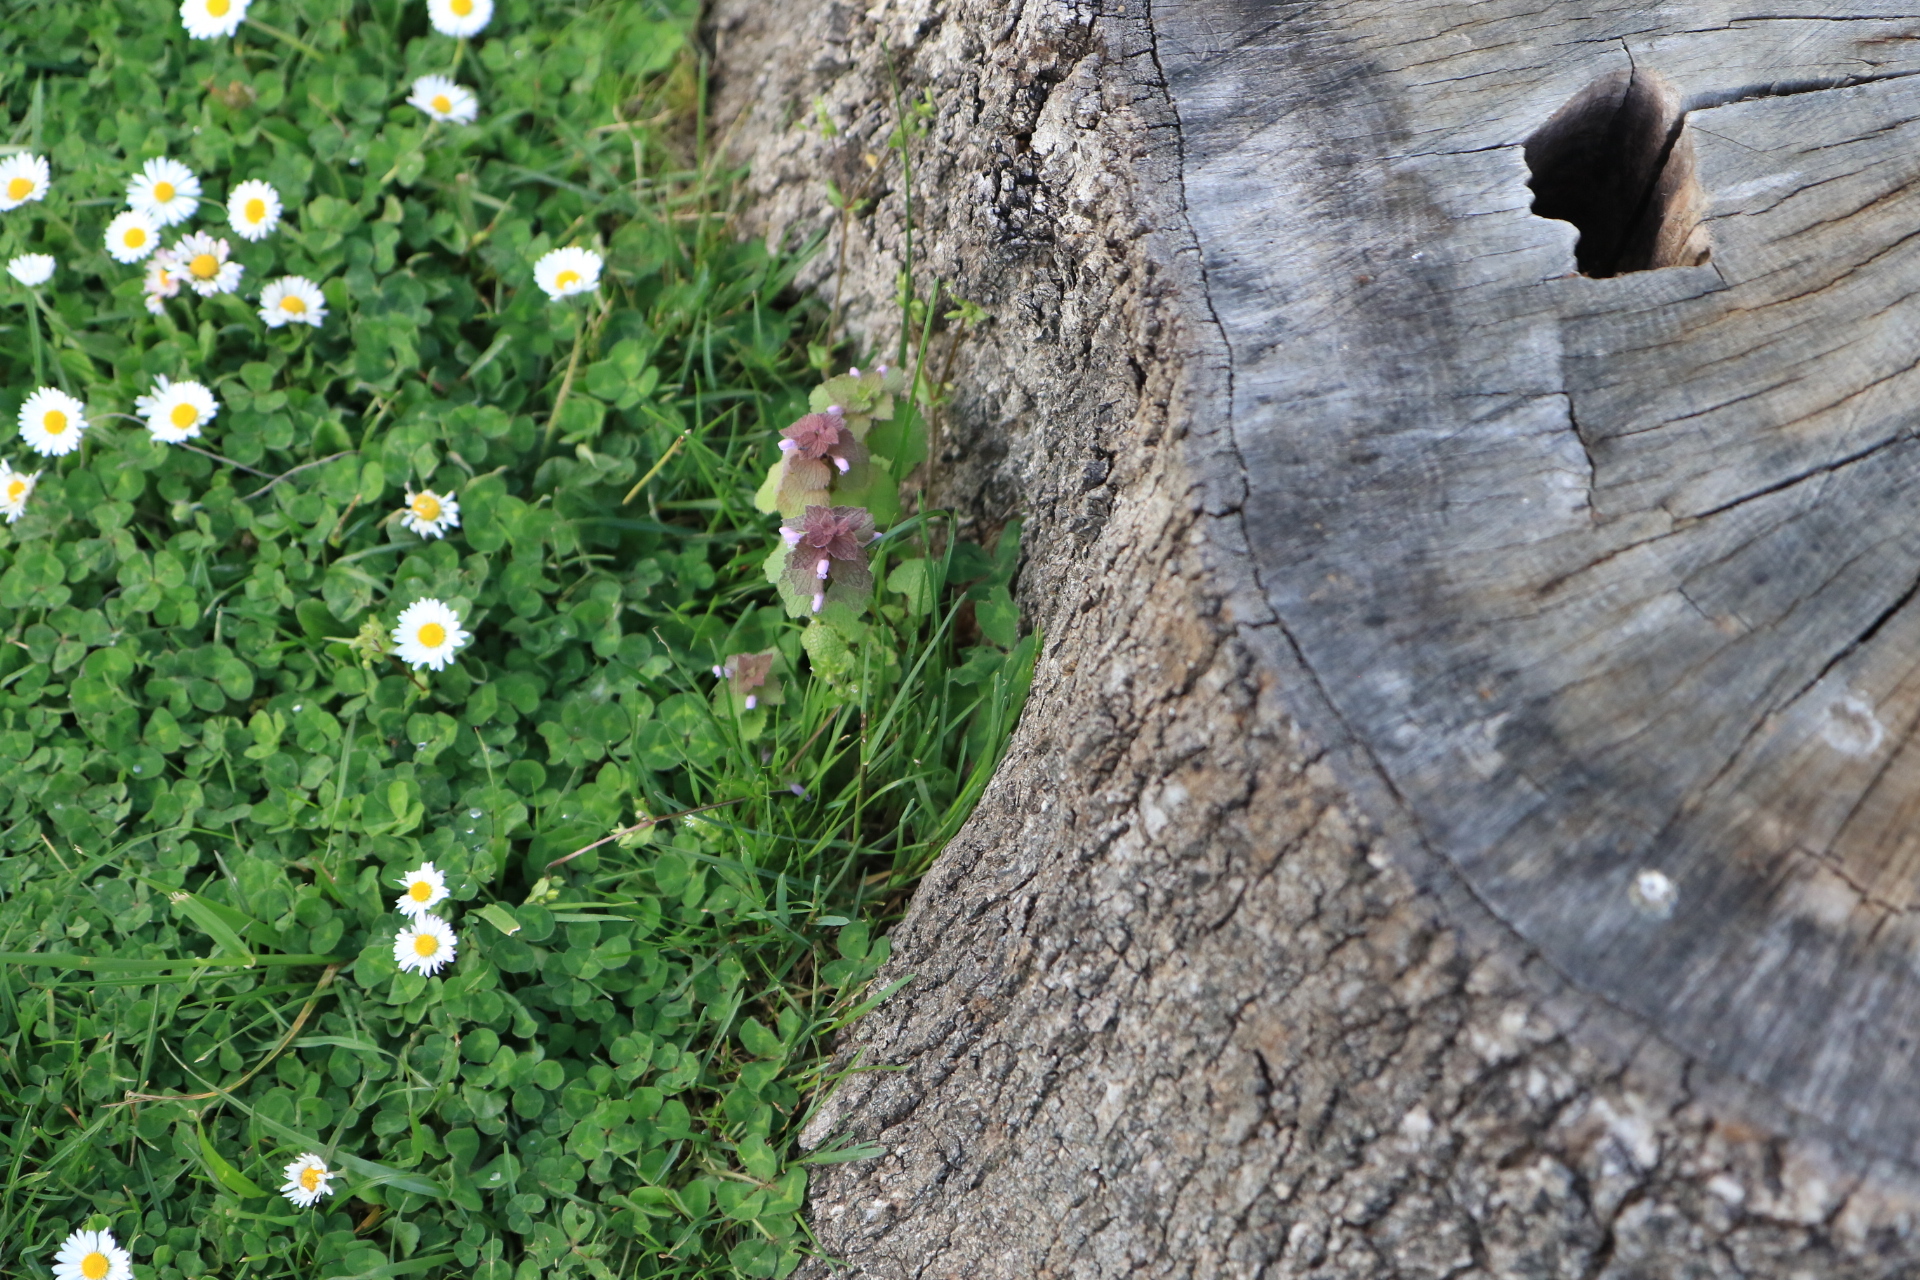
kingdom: Plantae
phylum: Tracheophyta
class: Magnoliopsida
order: Lamiales
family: Lamiaceae
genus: Lamium
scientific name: Lamium purpureum
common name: Red dead-nettle
